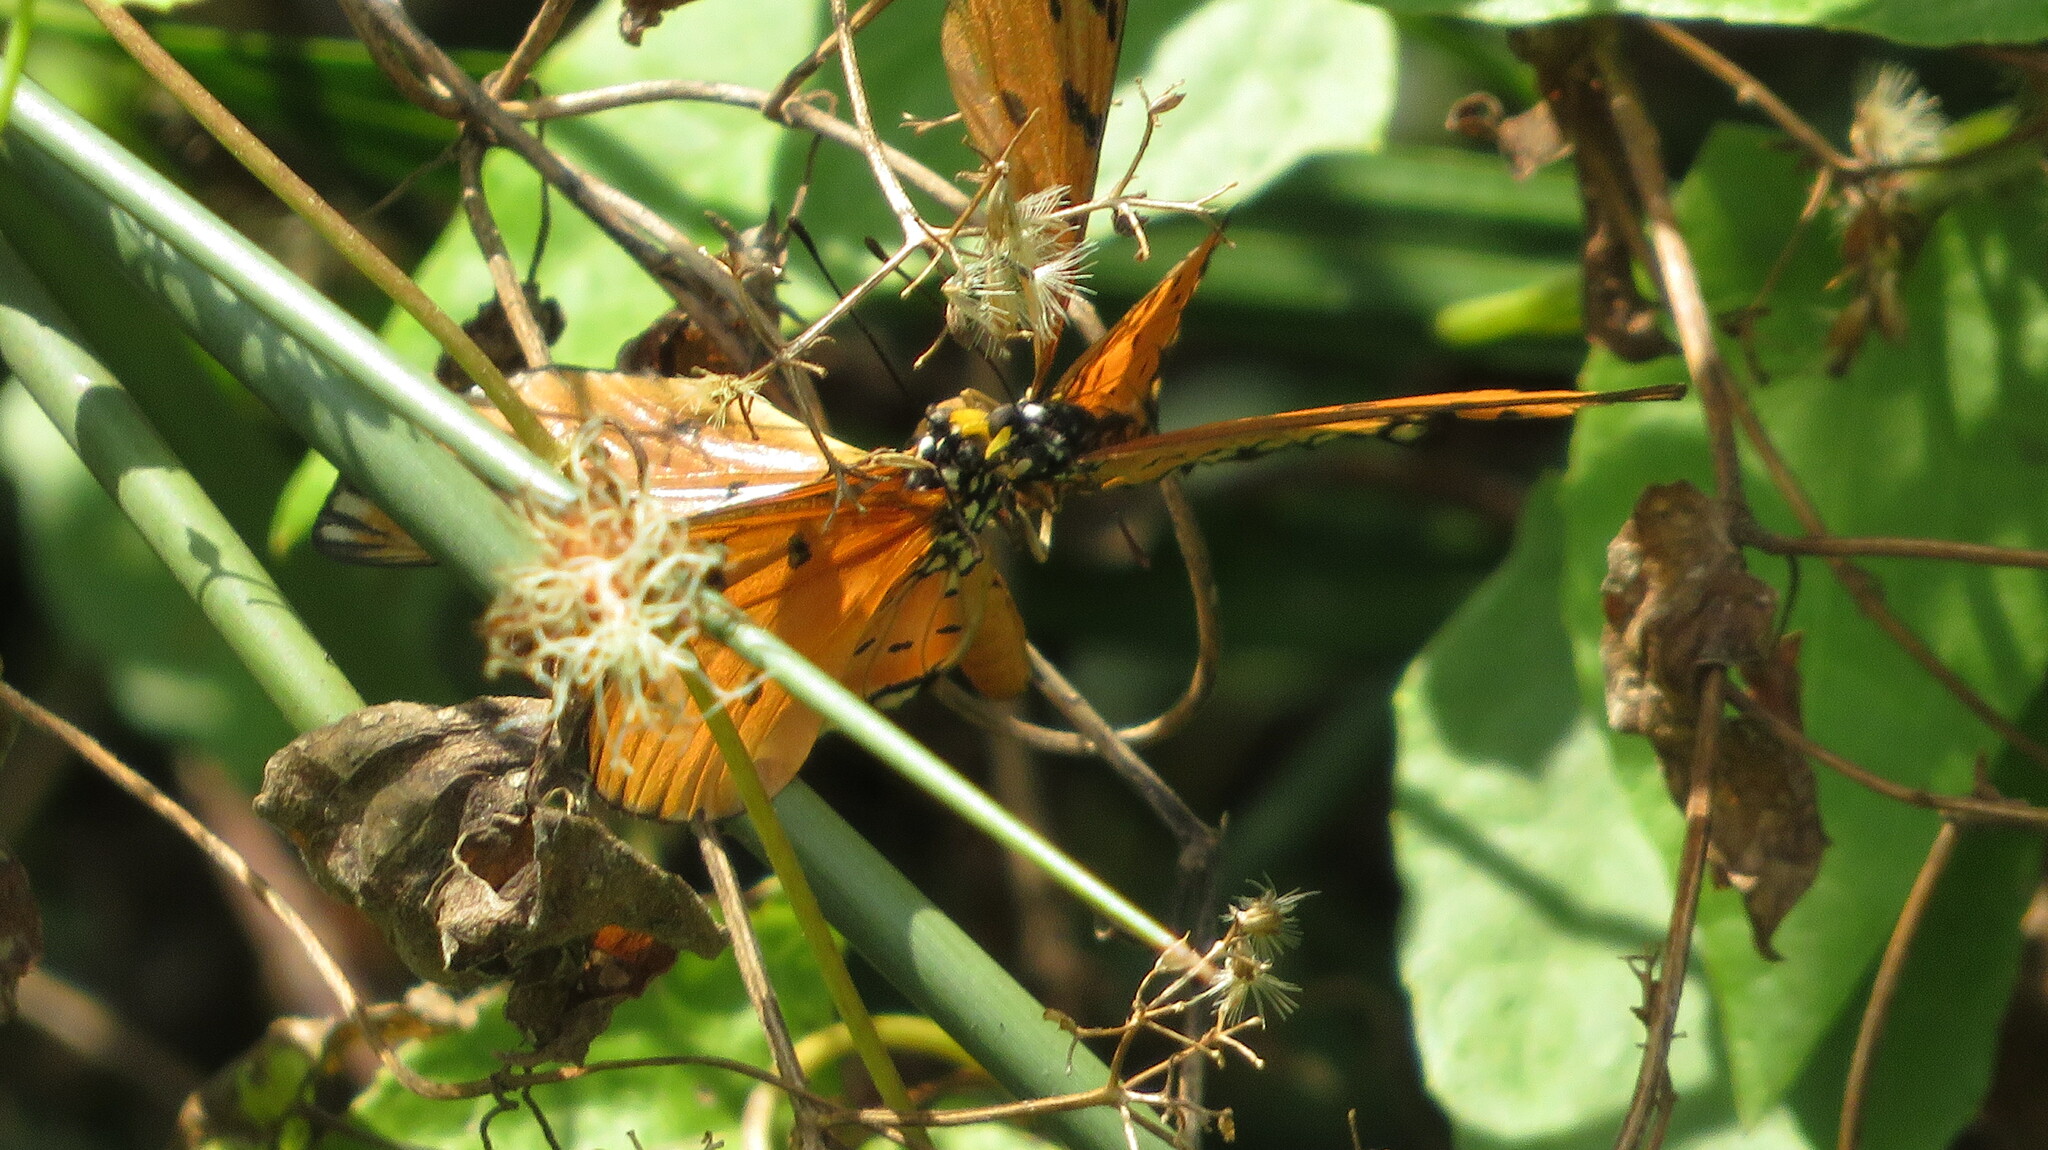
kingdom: Animalia
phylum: Arthropoda
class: Insecta
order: Lepidoptera
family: Nymphalidae
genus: Acraea
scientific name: Acraea terpsicore
